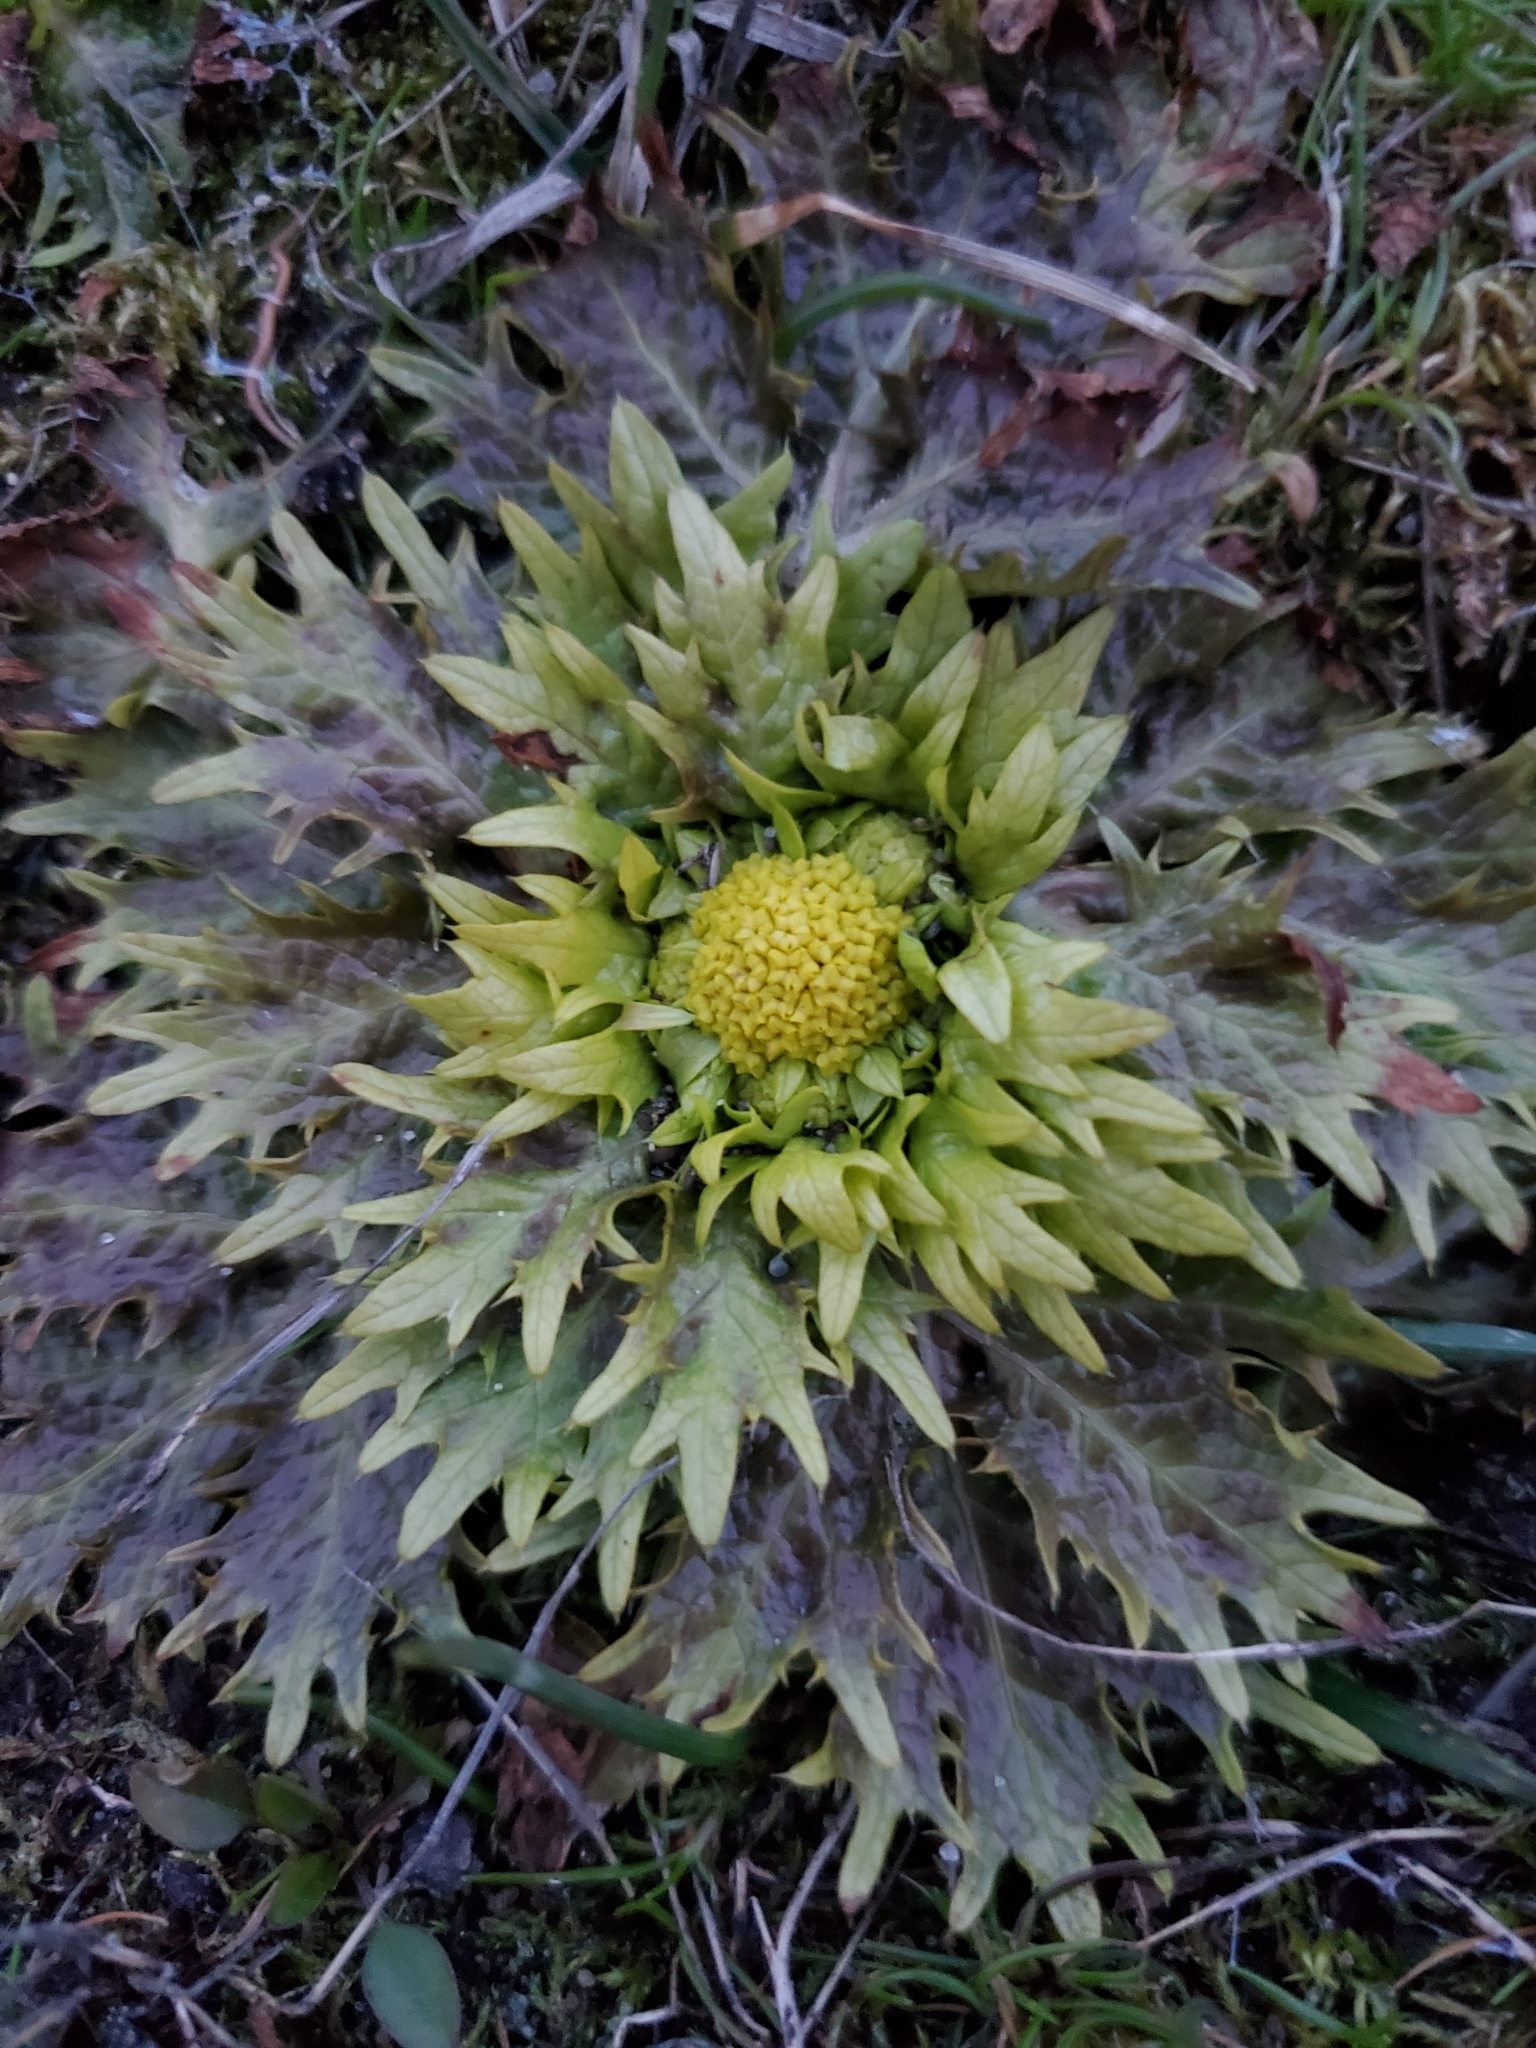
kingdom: Plantae
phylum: Tracheophyta
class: Magnoliopsida
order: Apiales
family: Apiaceae
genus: Sanicula
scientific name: Sanicula arctopoides
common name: Footsteps-of-spring
